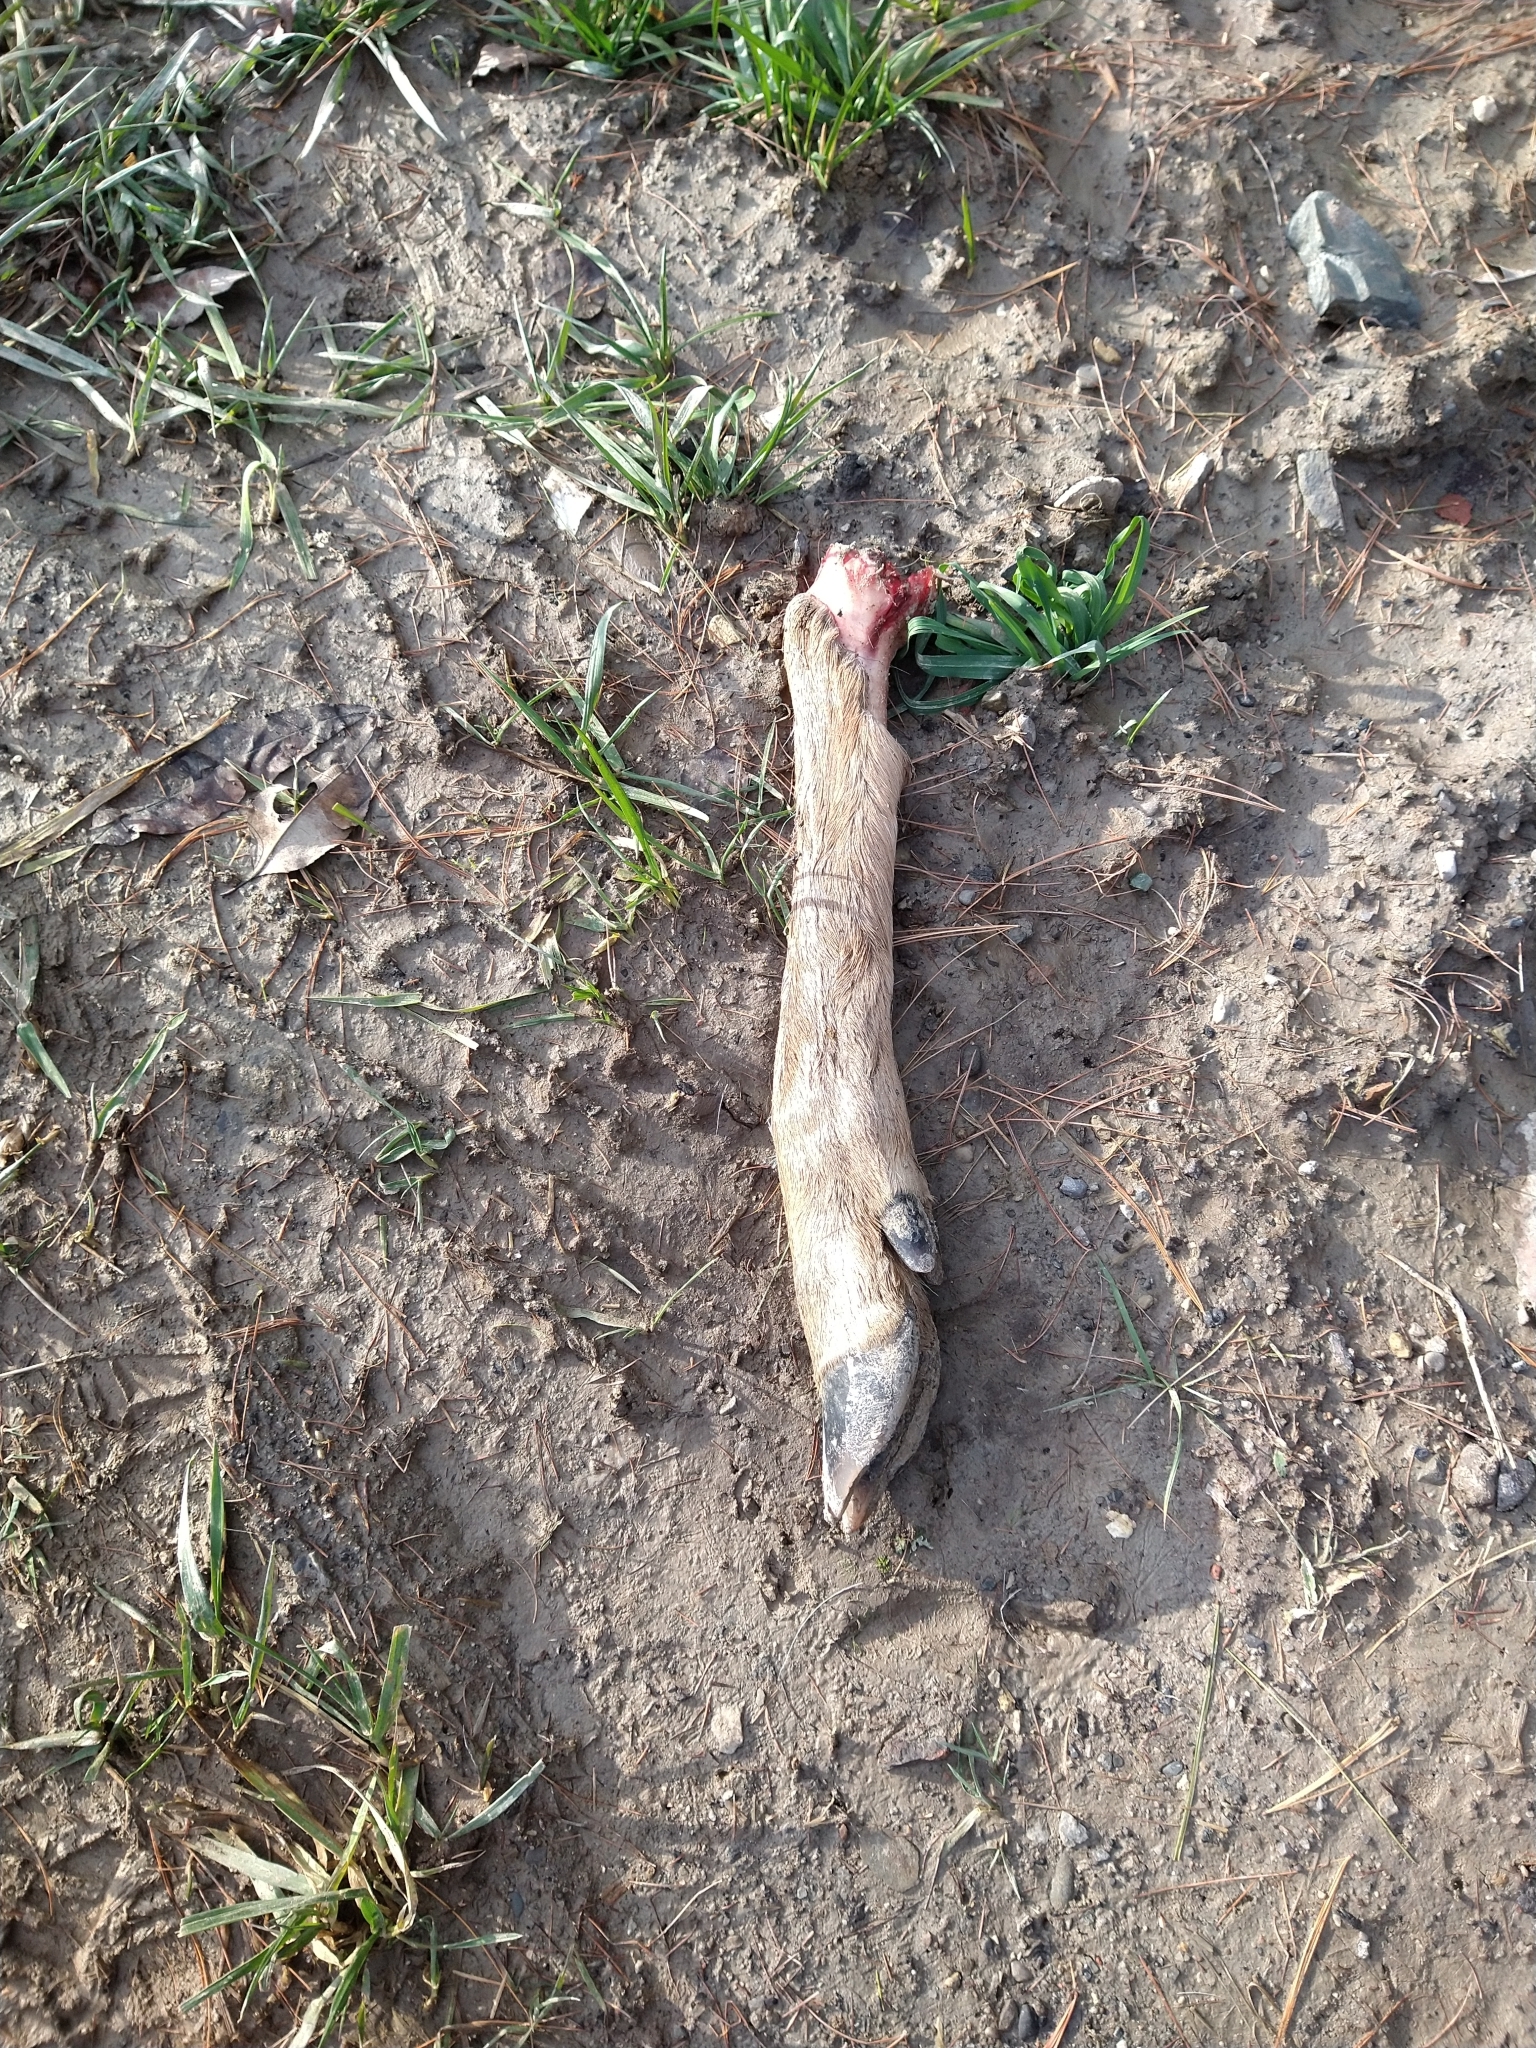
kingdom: Animalia
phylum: Chordata
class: Mammalia
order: Artiodactyla
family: Cervidae
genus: Odocoileus
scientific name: Odocoileus virginianus
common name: White-tailed deer
